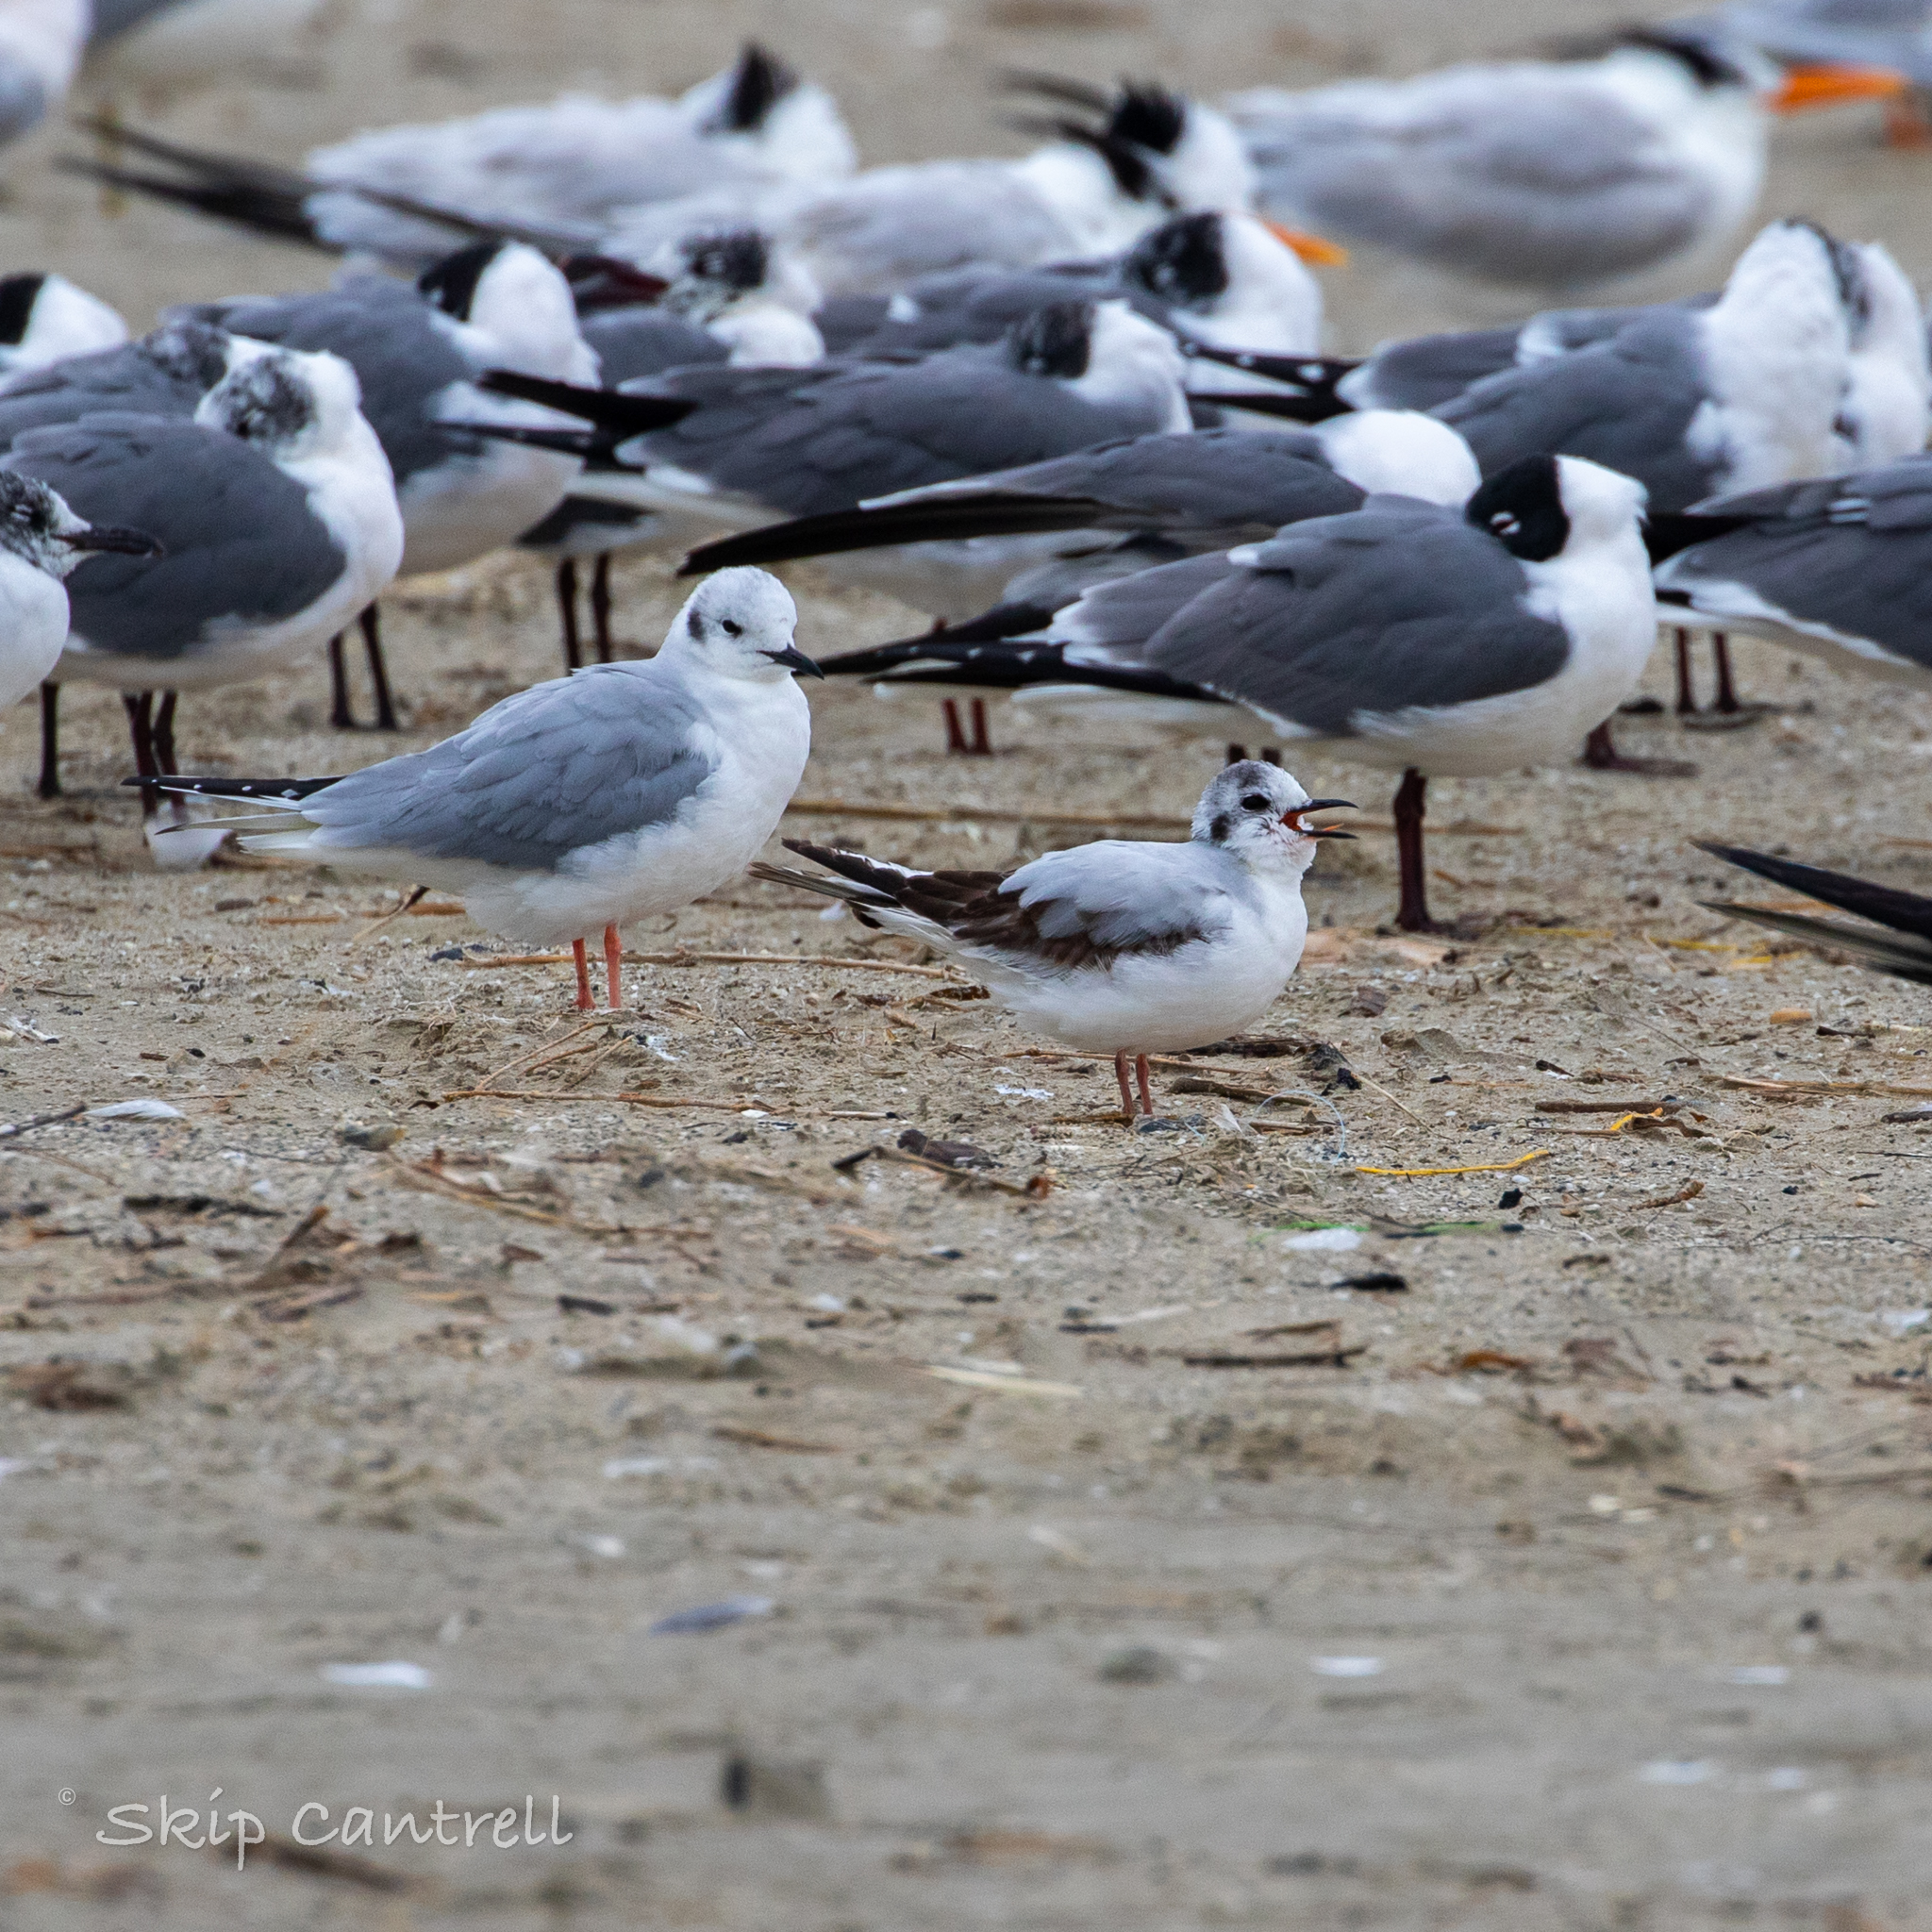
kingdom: Animalia
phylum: Chordata
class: Aves
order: Charadriiformes
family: Laridae
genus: Hydrocoloeus
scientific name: Hydrocoloeus minutus
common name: Little gull
